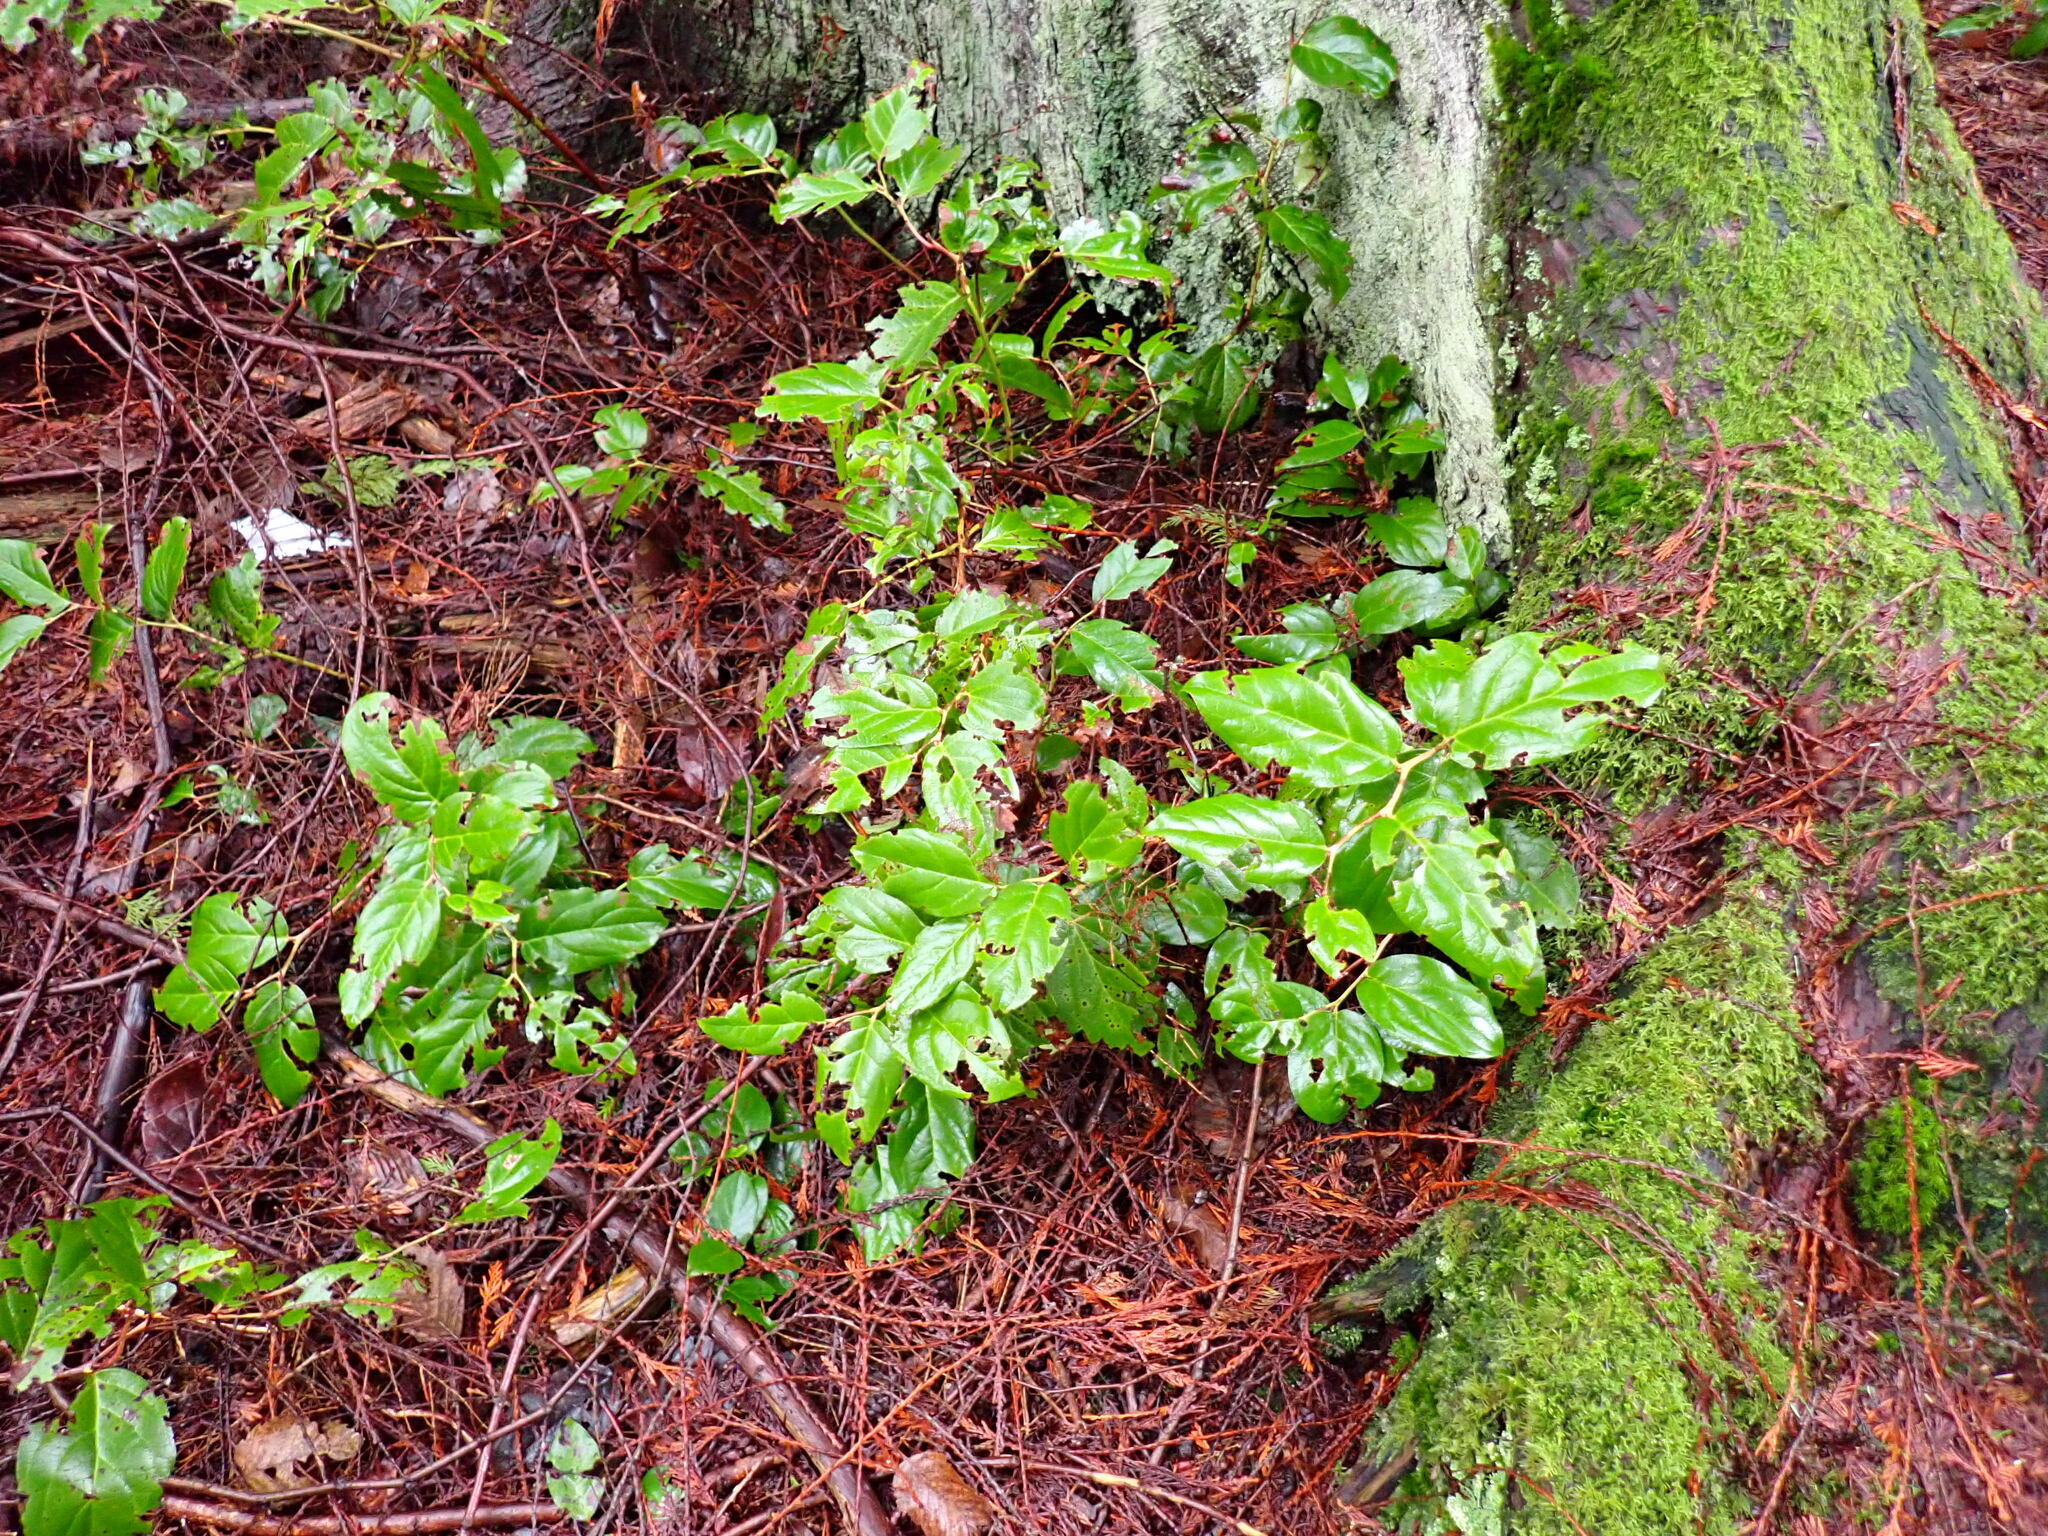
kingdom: Plantae
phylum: Tracheophyta
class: Magnoliopsida
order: Ericales
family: Ericaceae
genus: Gaultheria
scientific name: Gaultheria shallon
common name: Shallon
